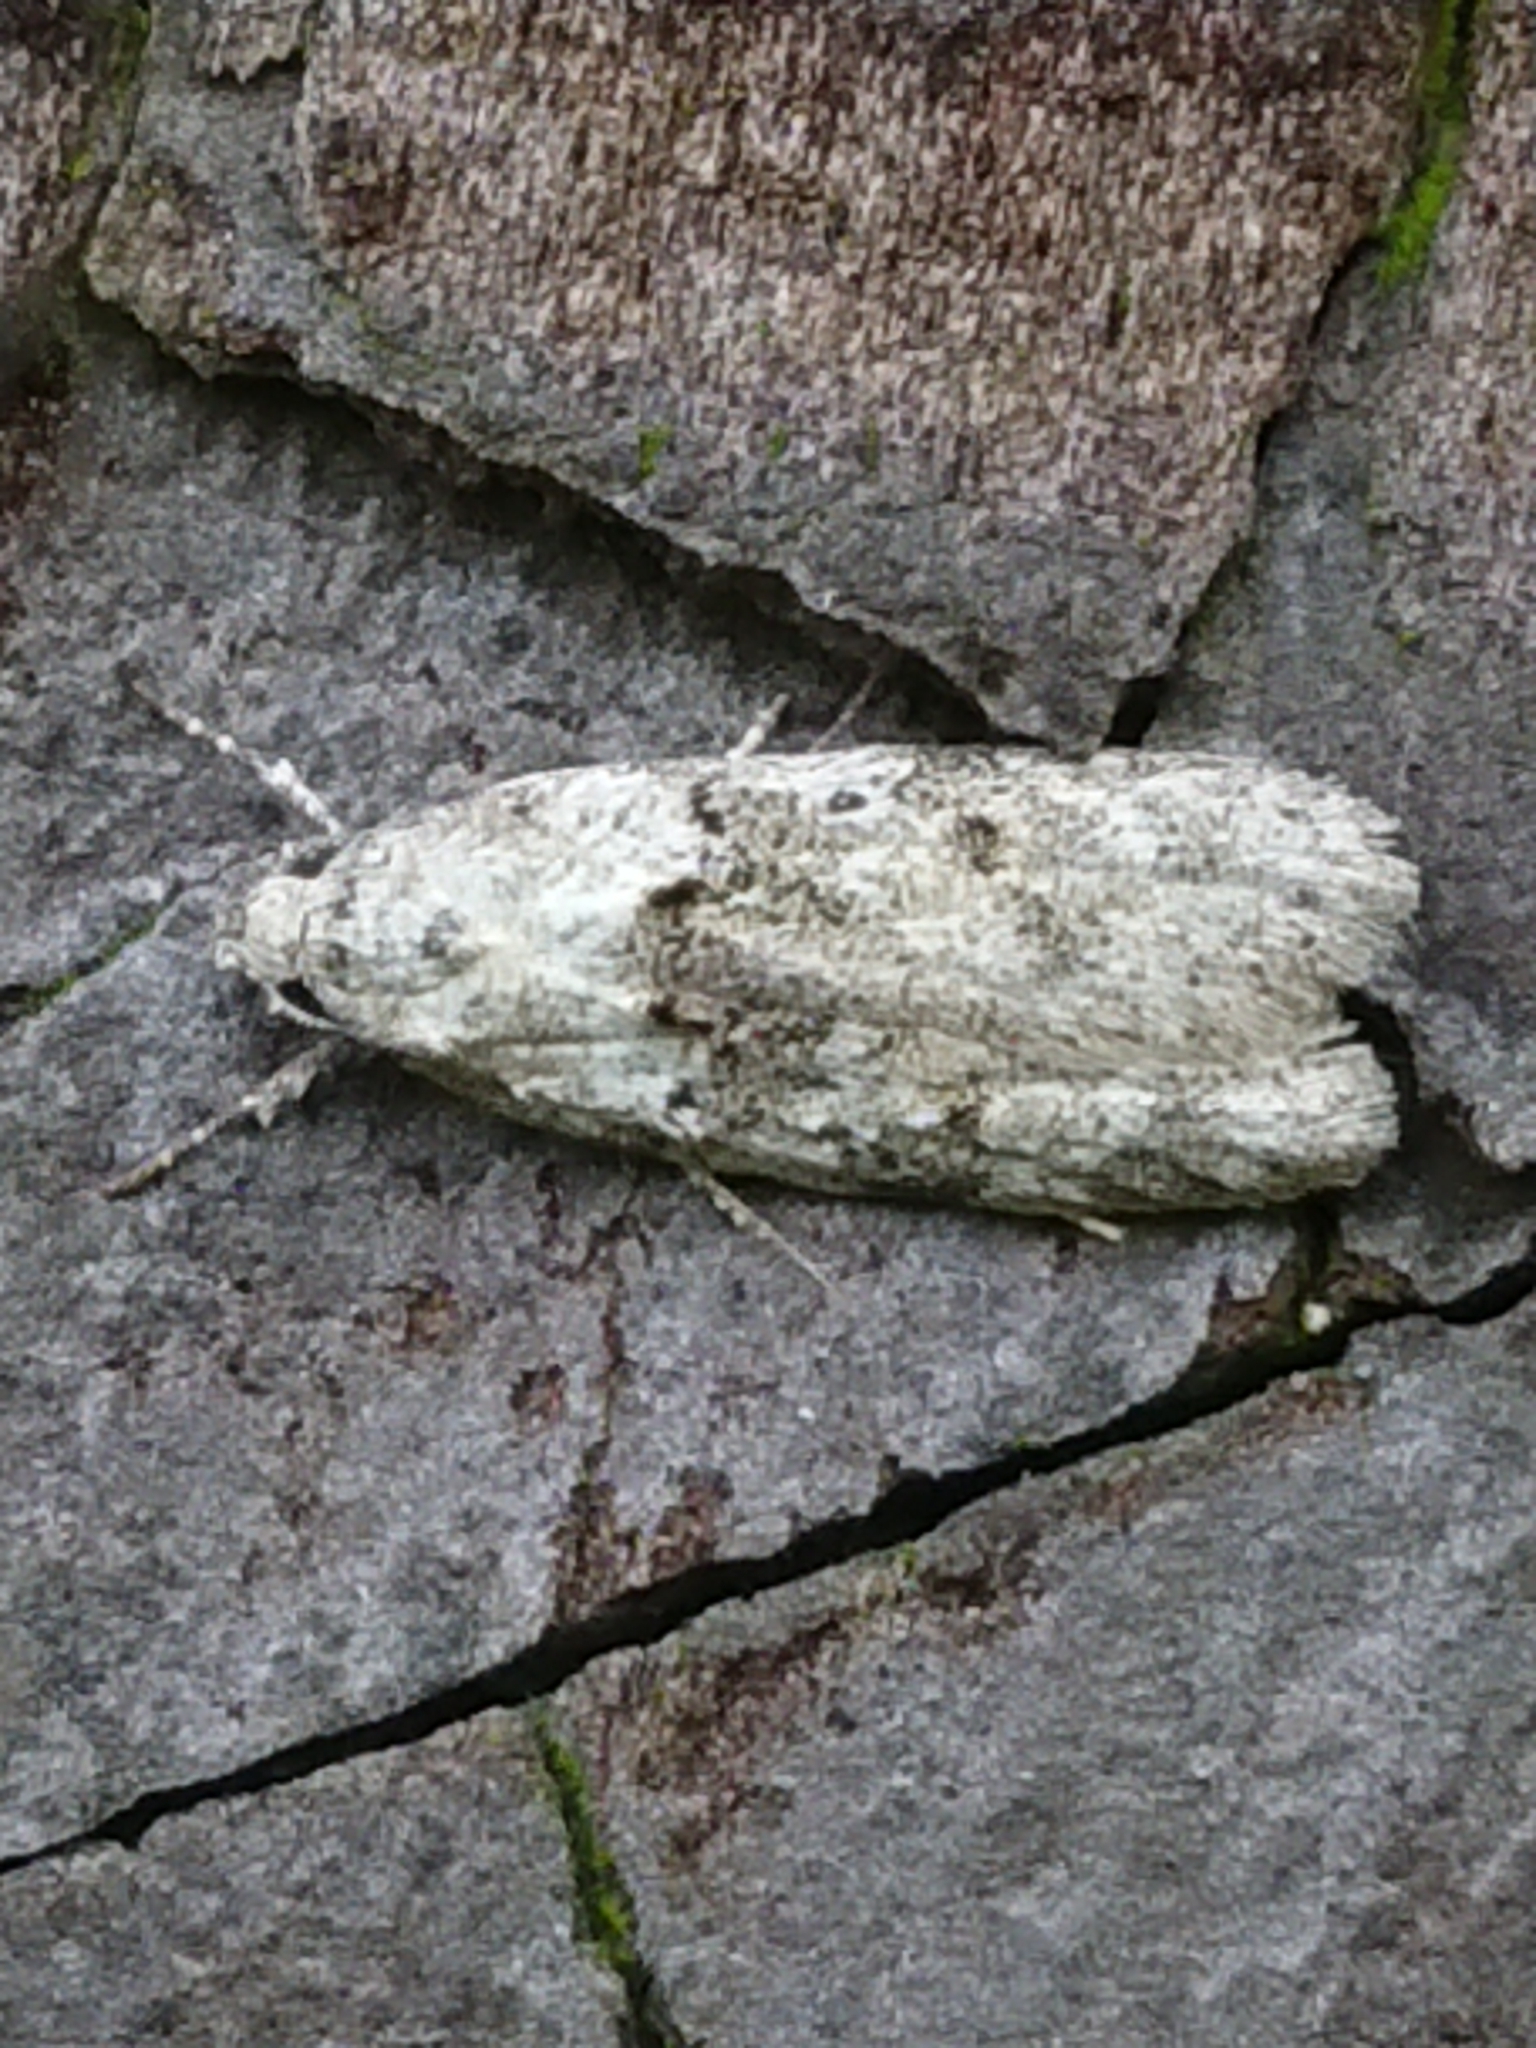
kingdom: Animalia
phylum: Arthropoda
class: Insecta
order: Lepidoptera
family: Oecophoridae
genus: Izatha
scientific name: Izatha convulsella
